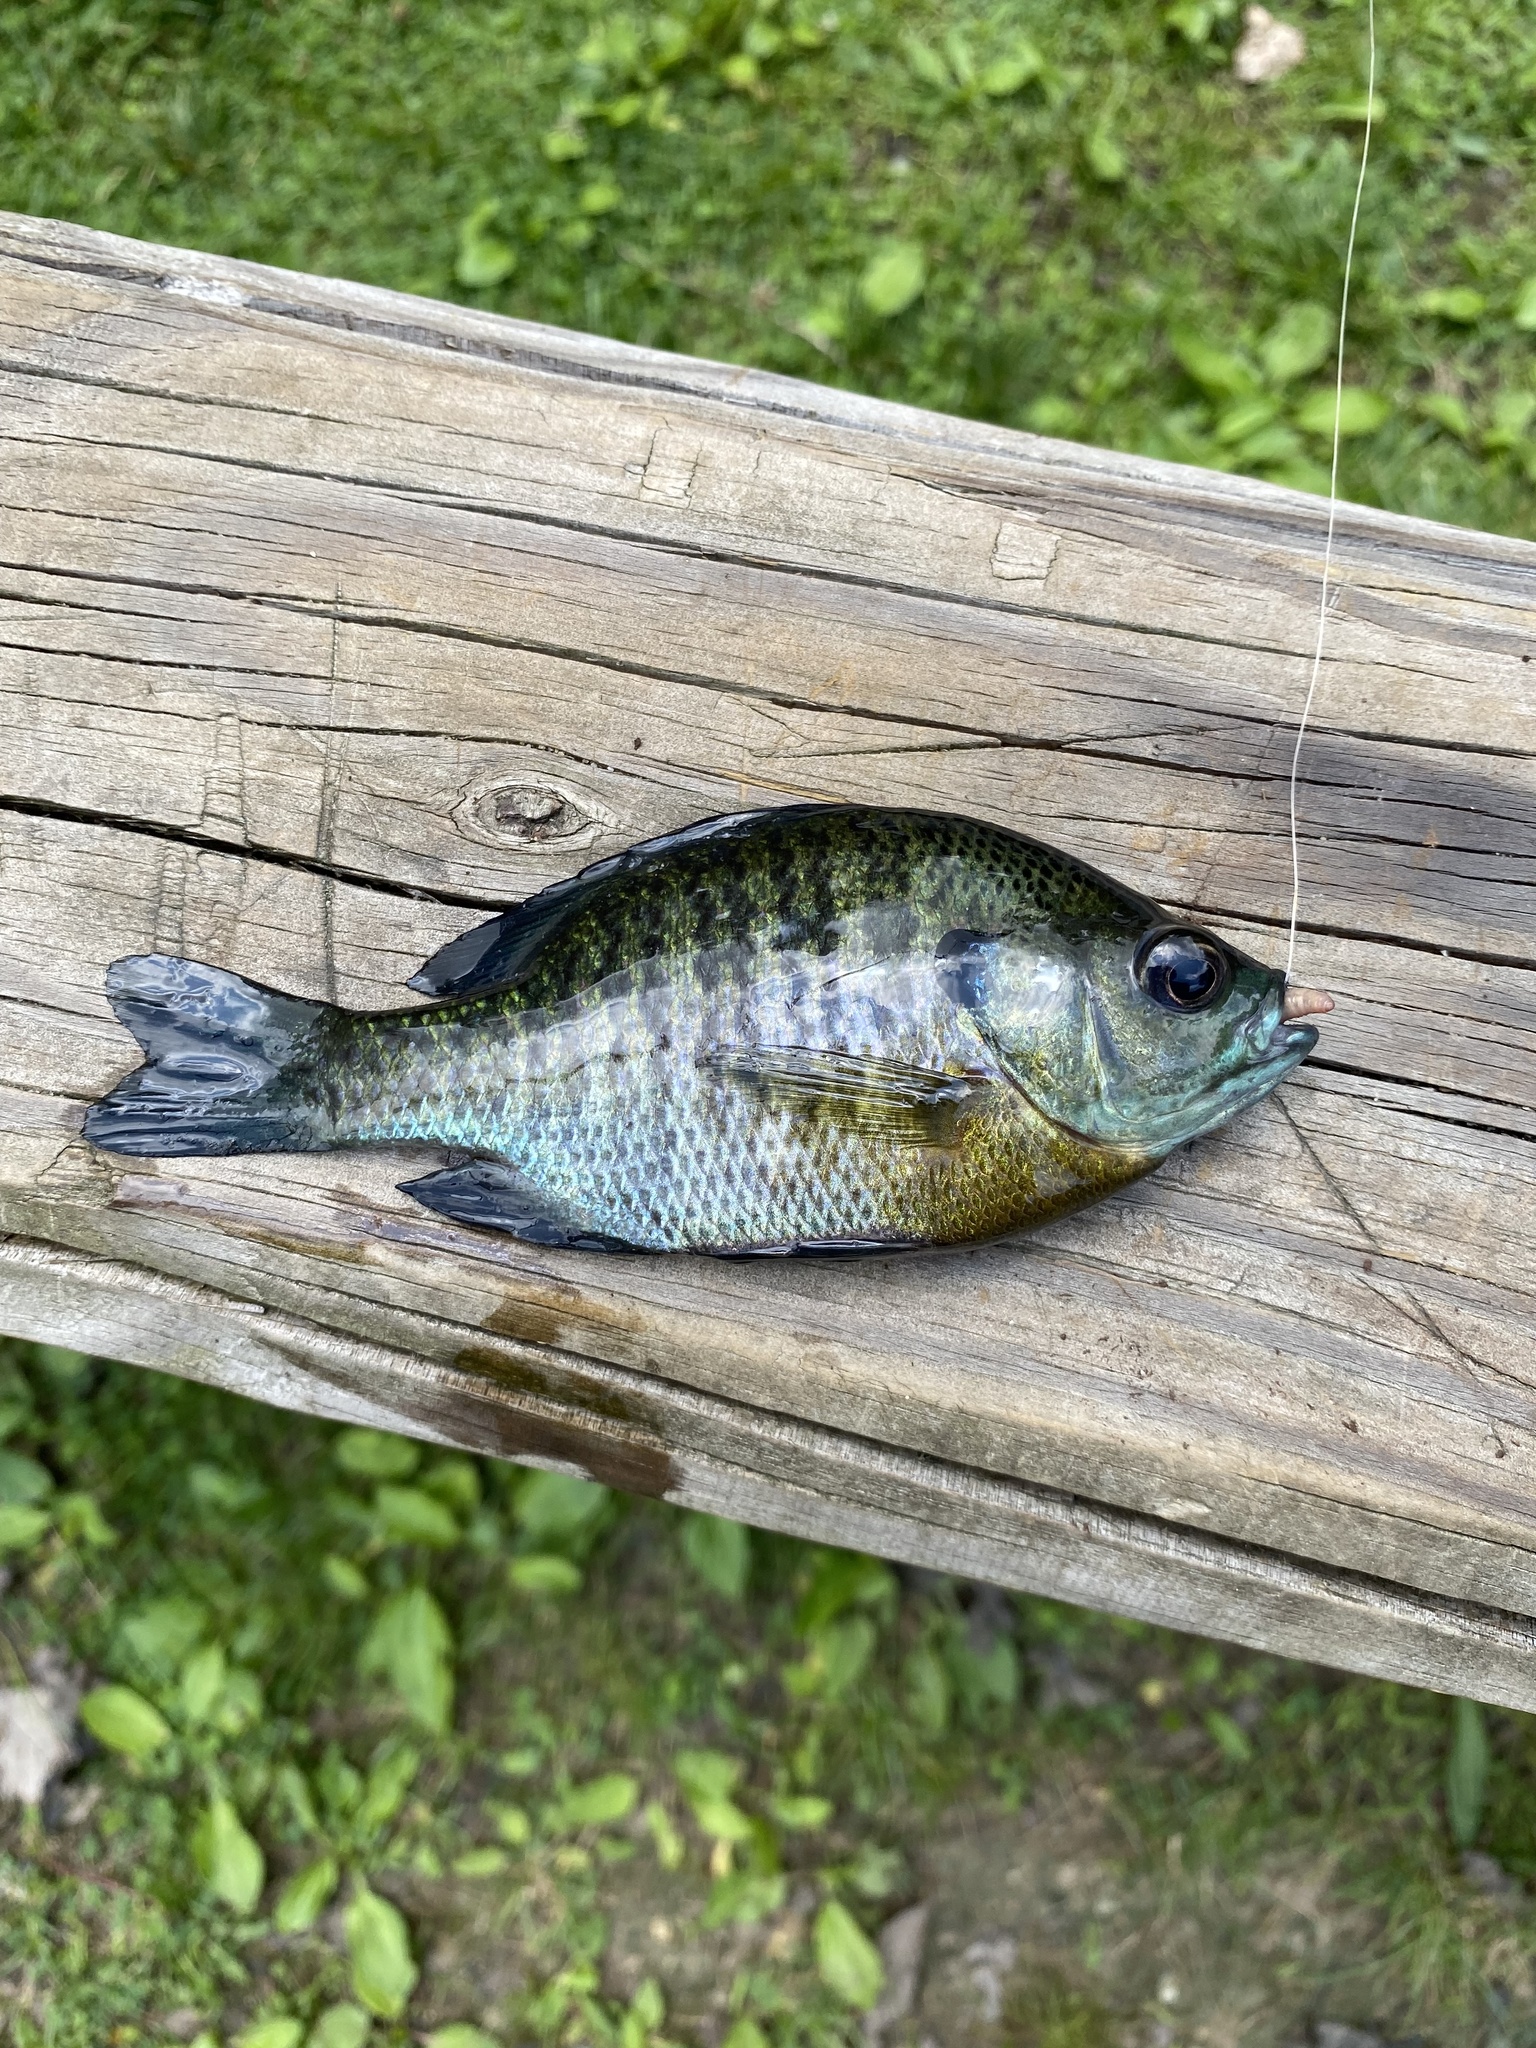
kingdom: Animalia
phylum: Chordata
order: Perciformes
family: Centrarchidae
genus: Lepomis
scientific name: Lepomis macrochirus
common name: Bluegill
